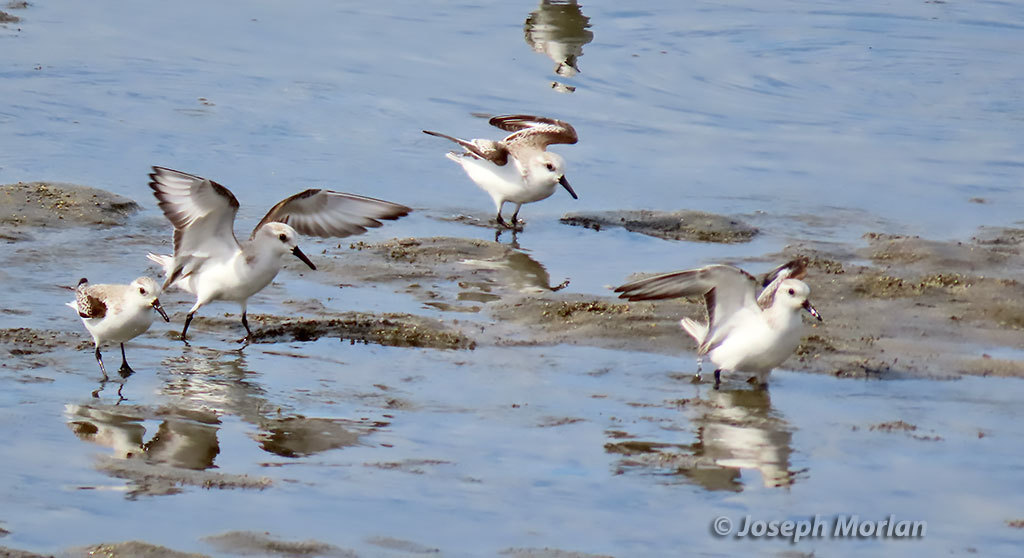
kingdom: Animalia
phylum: Chordata
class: Aves
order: Charadriiformes
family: Scolopacidae
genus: Calidris
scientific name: Calidris alba
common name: Sanderling
